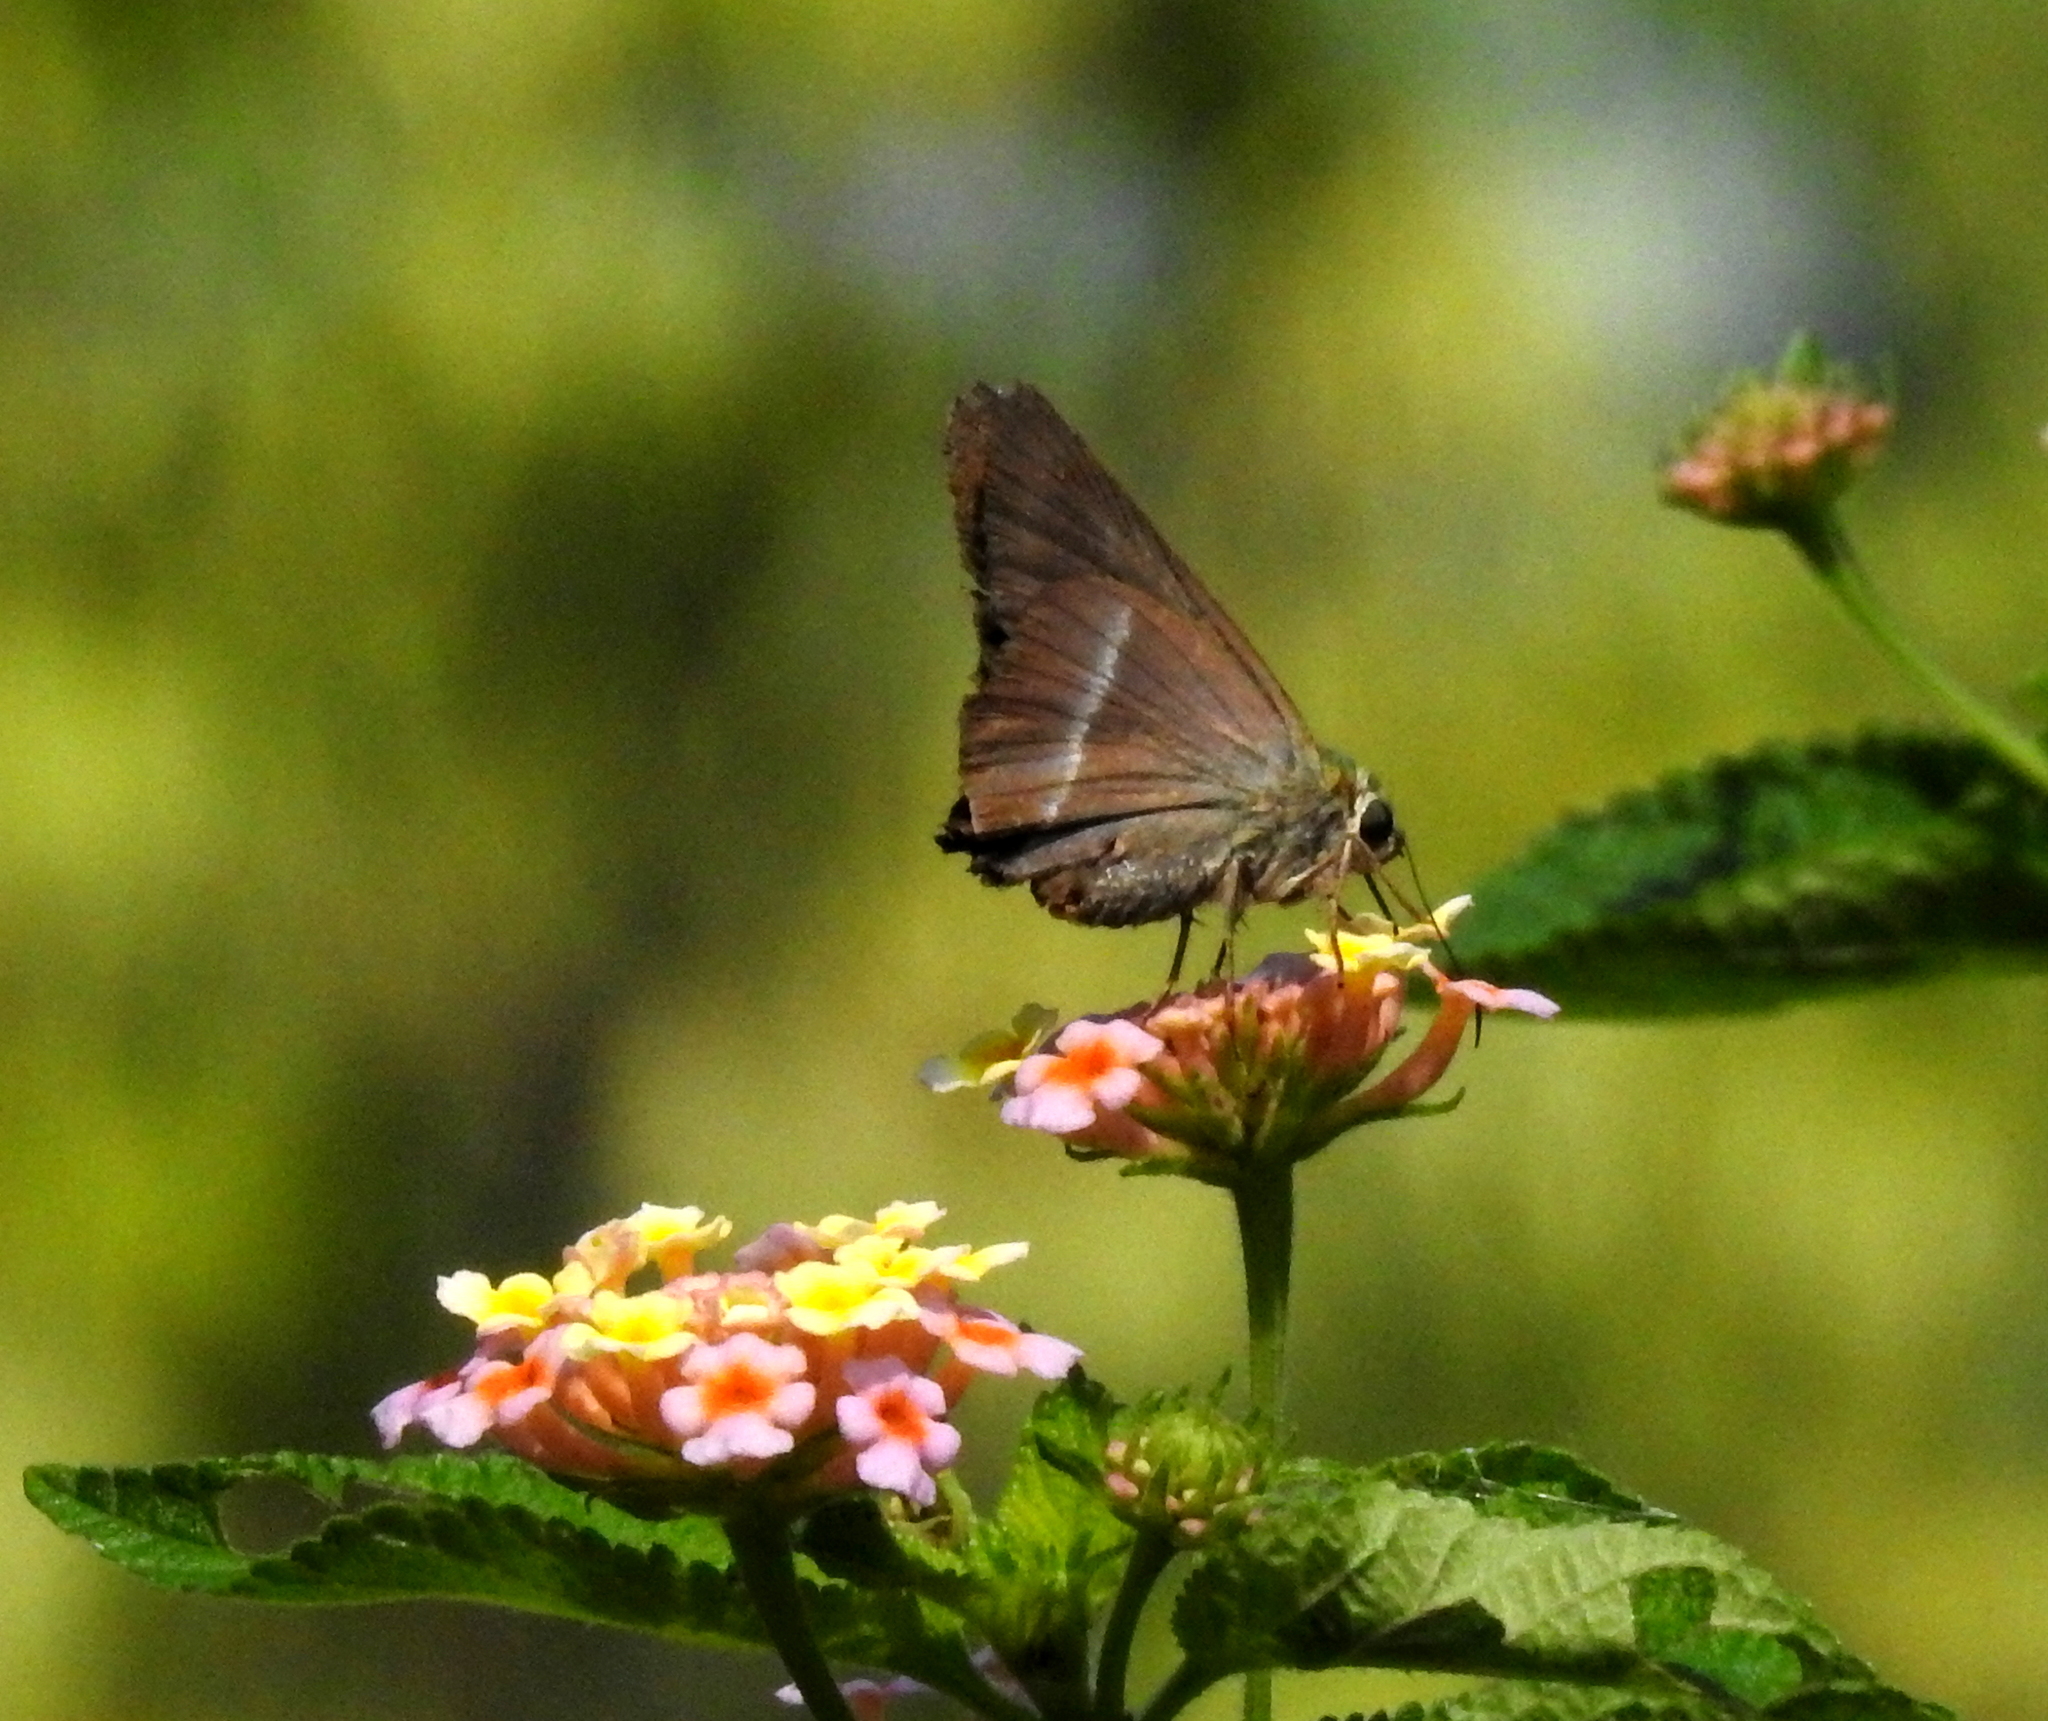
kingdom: Animalia
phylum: Arthropoda
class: Insecta
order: Lepidoptera
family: Hesperiidae
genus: Hasora
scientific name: Hasora chromus
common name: Common banded awl
